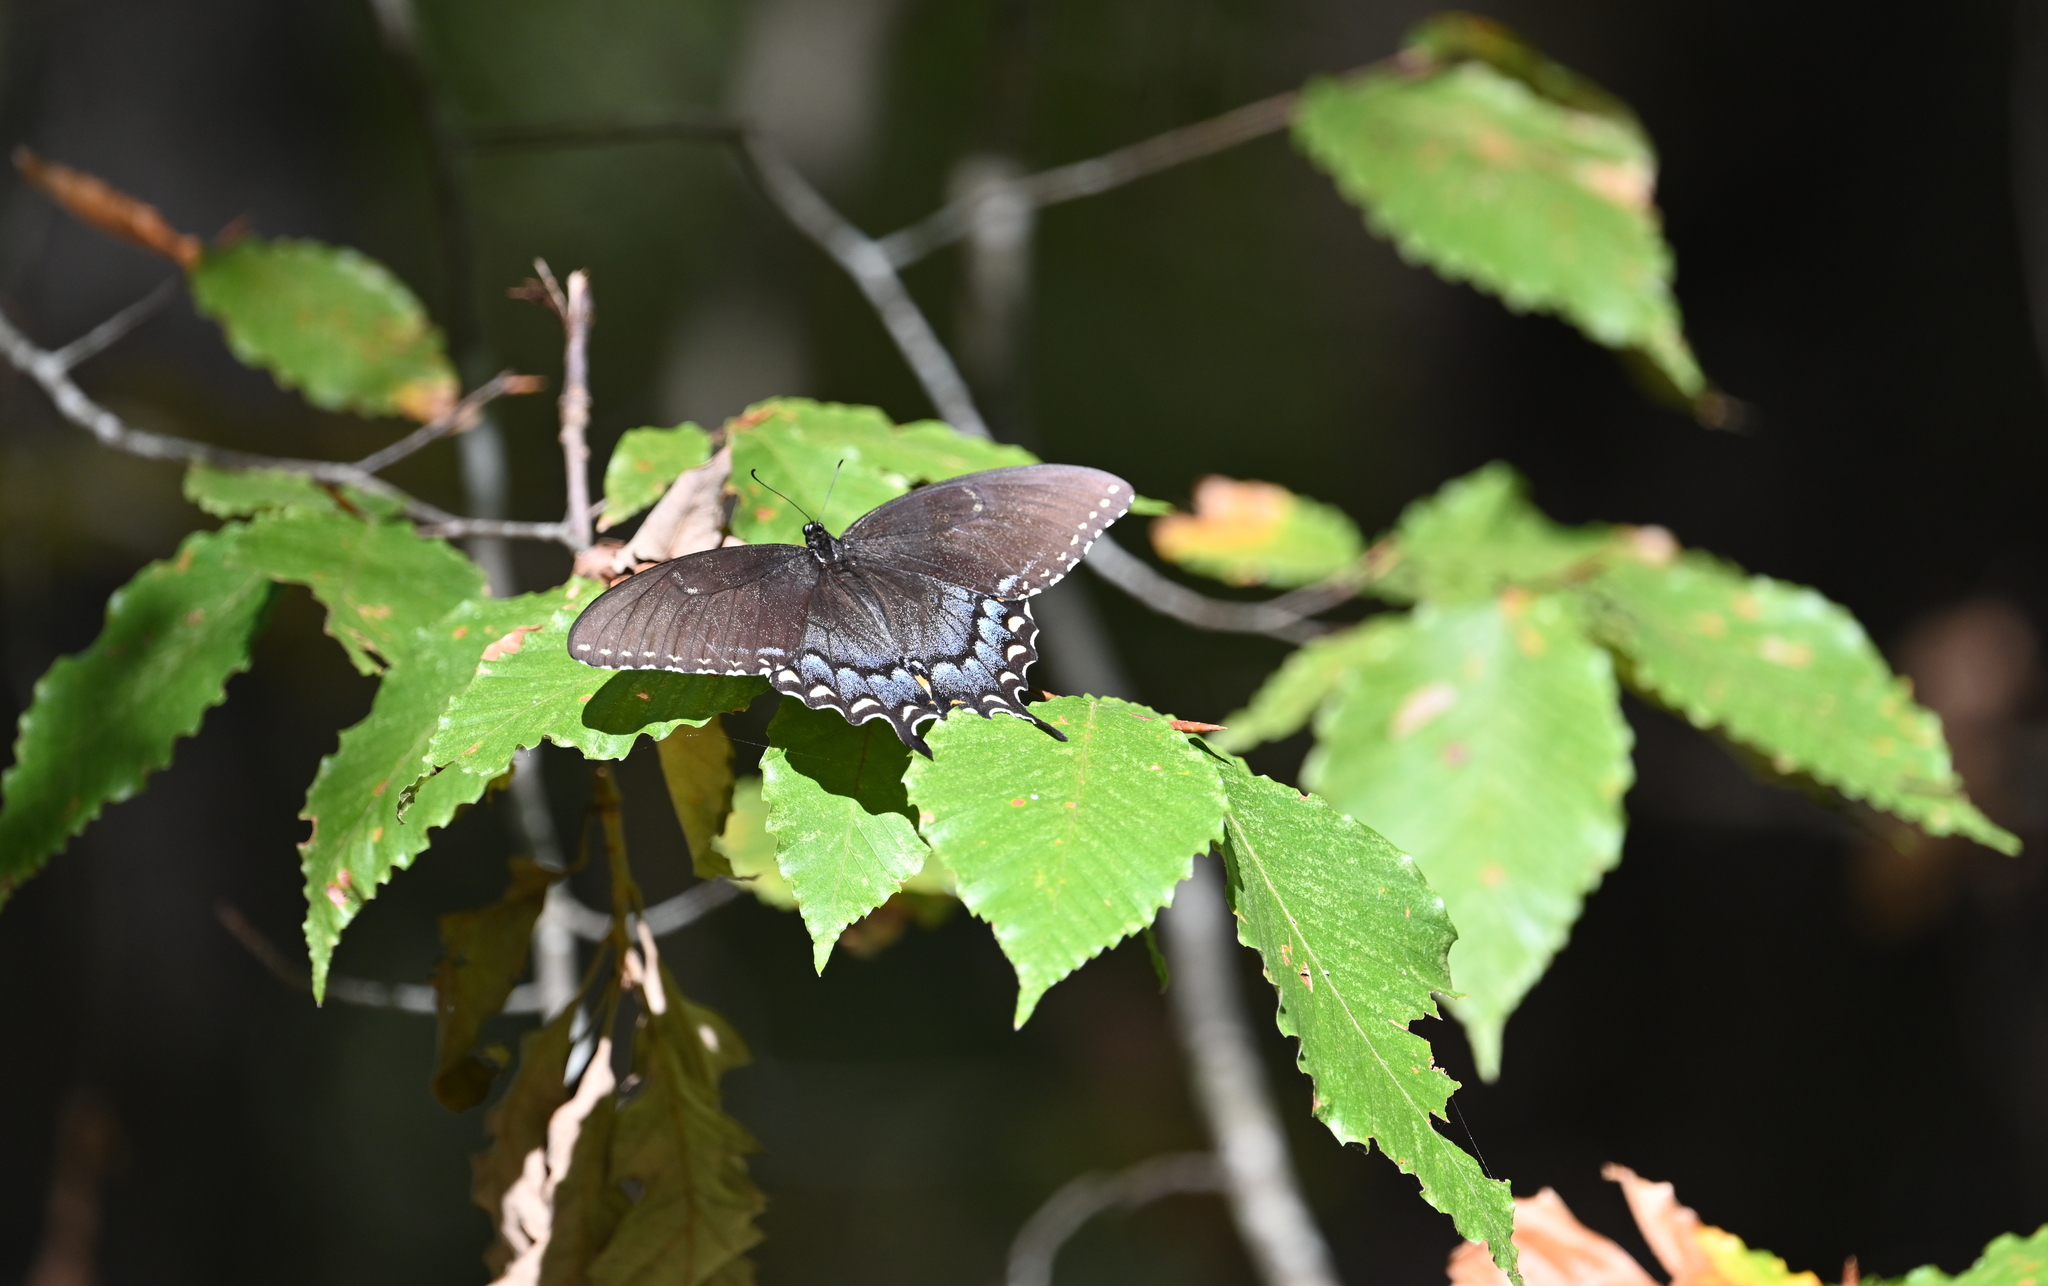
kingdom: Animalia
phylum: Arthropoda
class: Insecta
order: Lepidoptera
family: Papilionidae
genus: Papilio
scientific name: Papilio glaucus
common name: Tiger swallowtail
